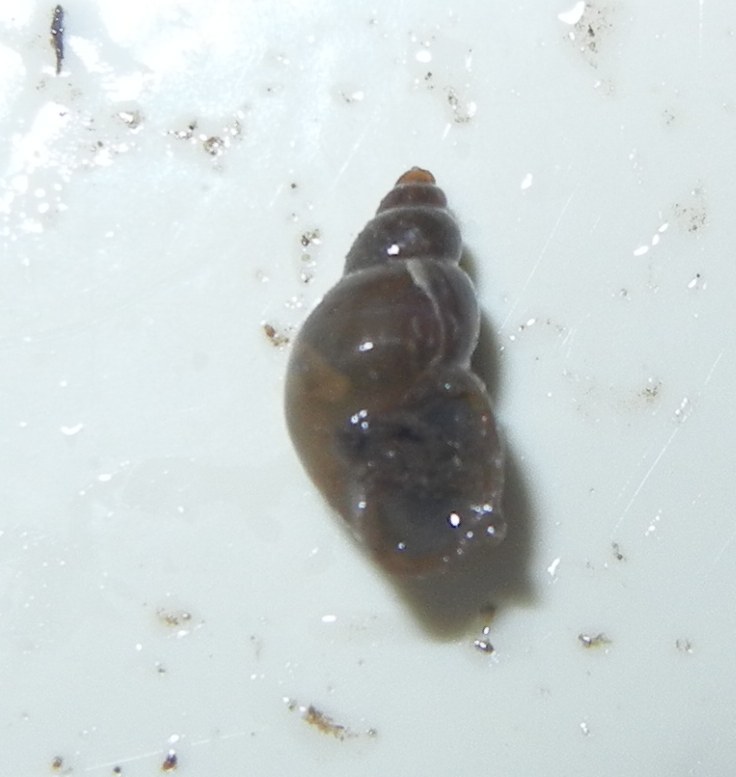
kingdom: Animalia
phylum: Mollusca
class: Gastropoda
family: Lymnaeidae
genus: Galba
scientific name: Galba truncatula
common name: Dwarf pond snail
